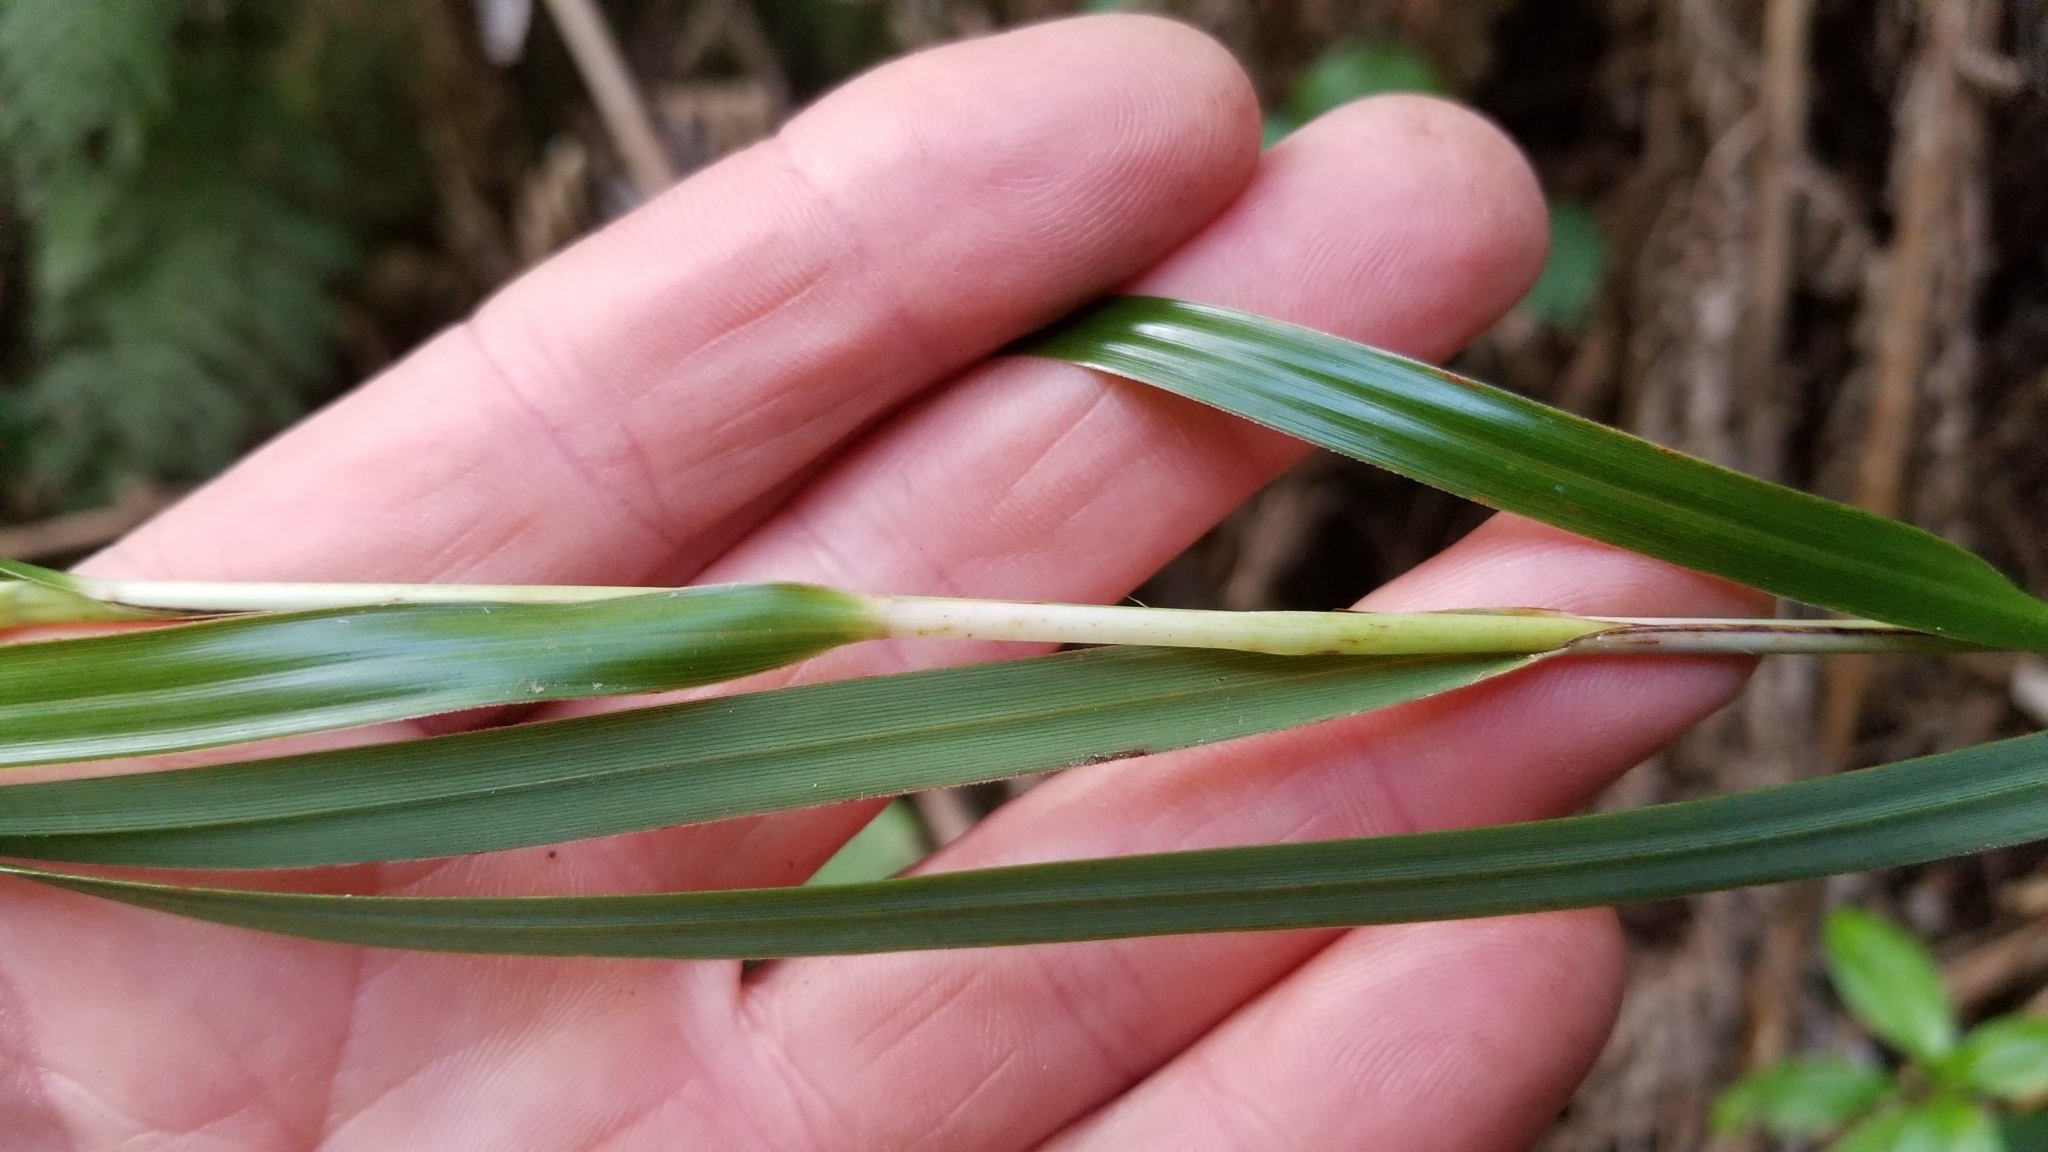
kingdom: Plantae
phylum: Tracheophyta
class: Liliopsida
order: Asparagales
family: Orchidaceae
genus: Earina
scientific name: Earina mucronata
